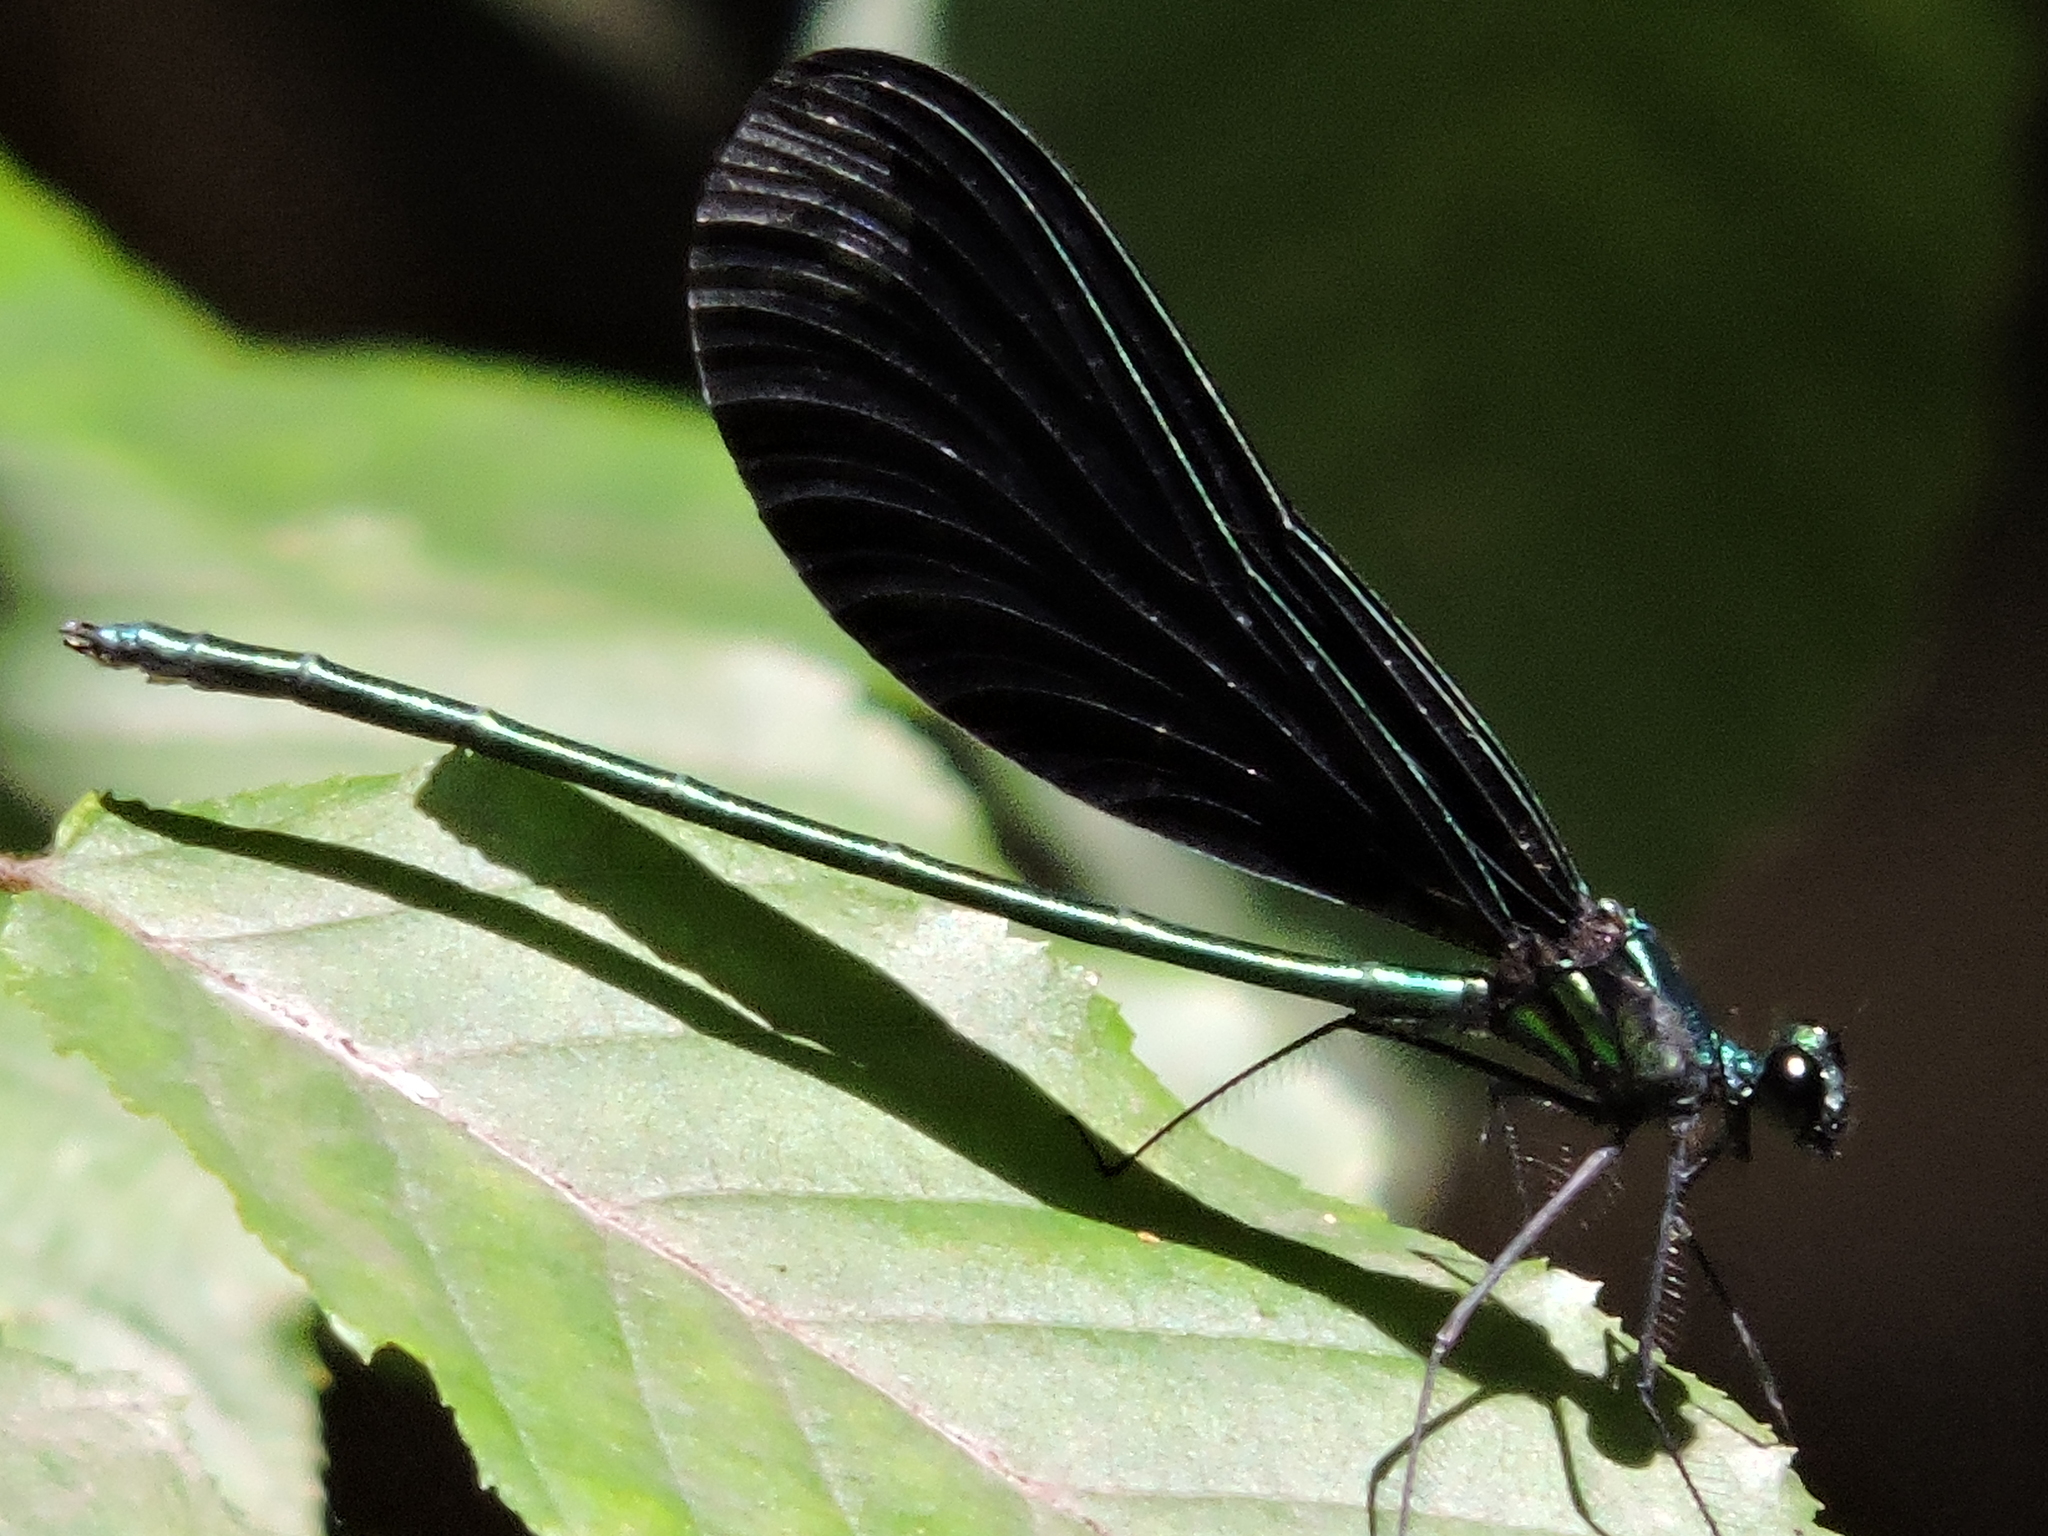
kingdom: Animalia
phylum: Arthropoda
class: Insecta
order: Odonata
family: Calopterygidae
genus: Calopteryx
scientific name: Calopteryx maculata
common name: Ebony jewelwing
